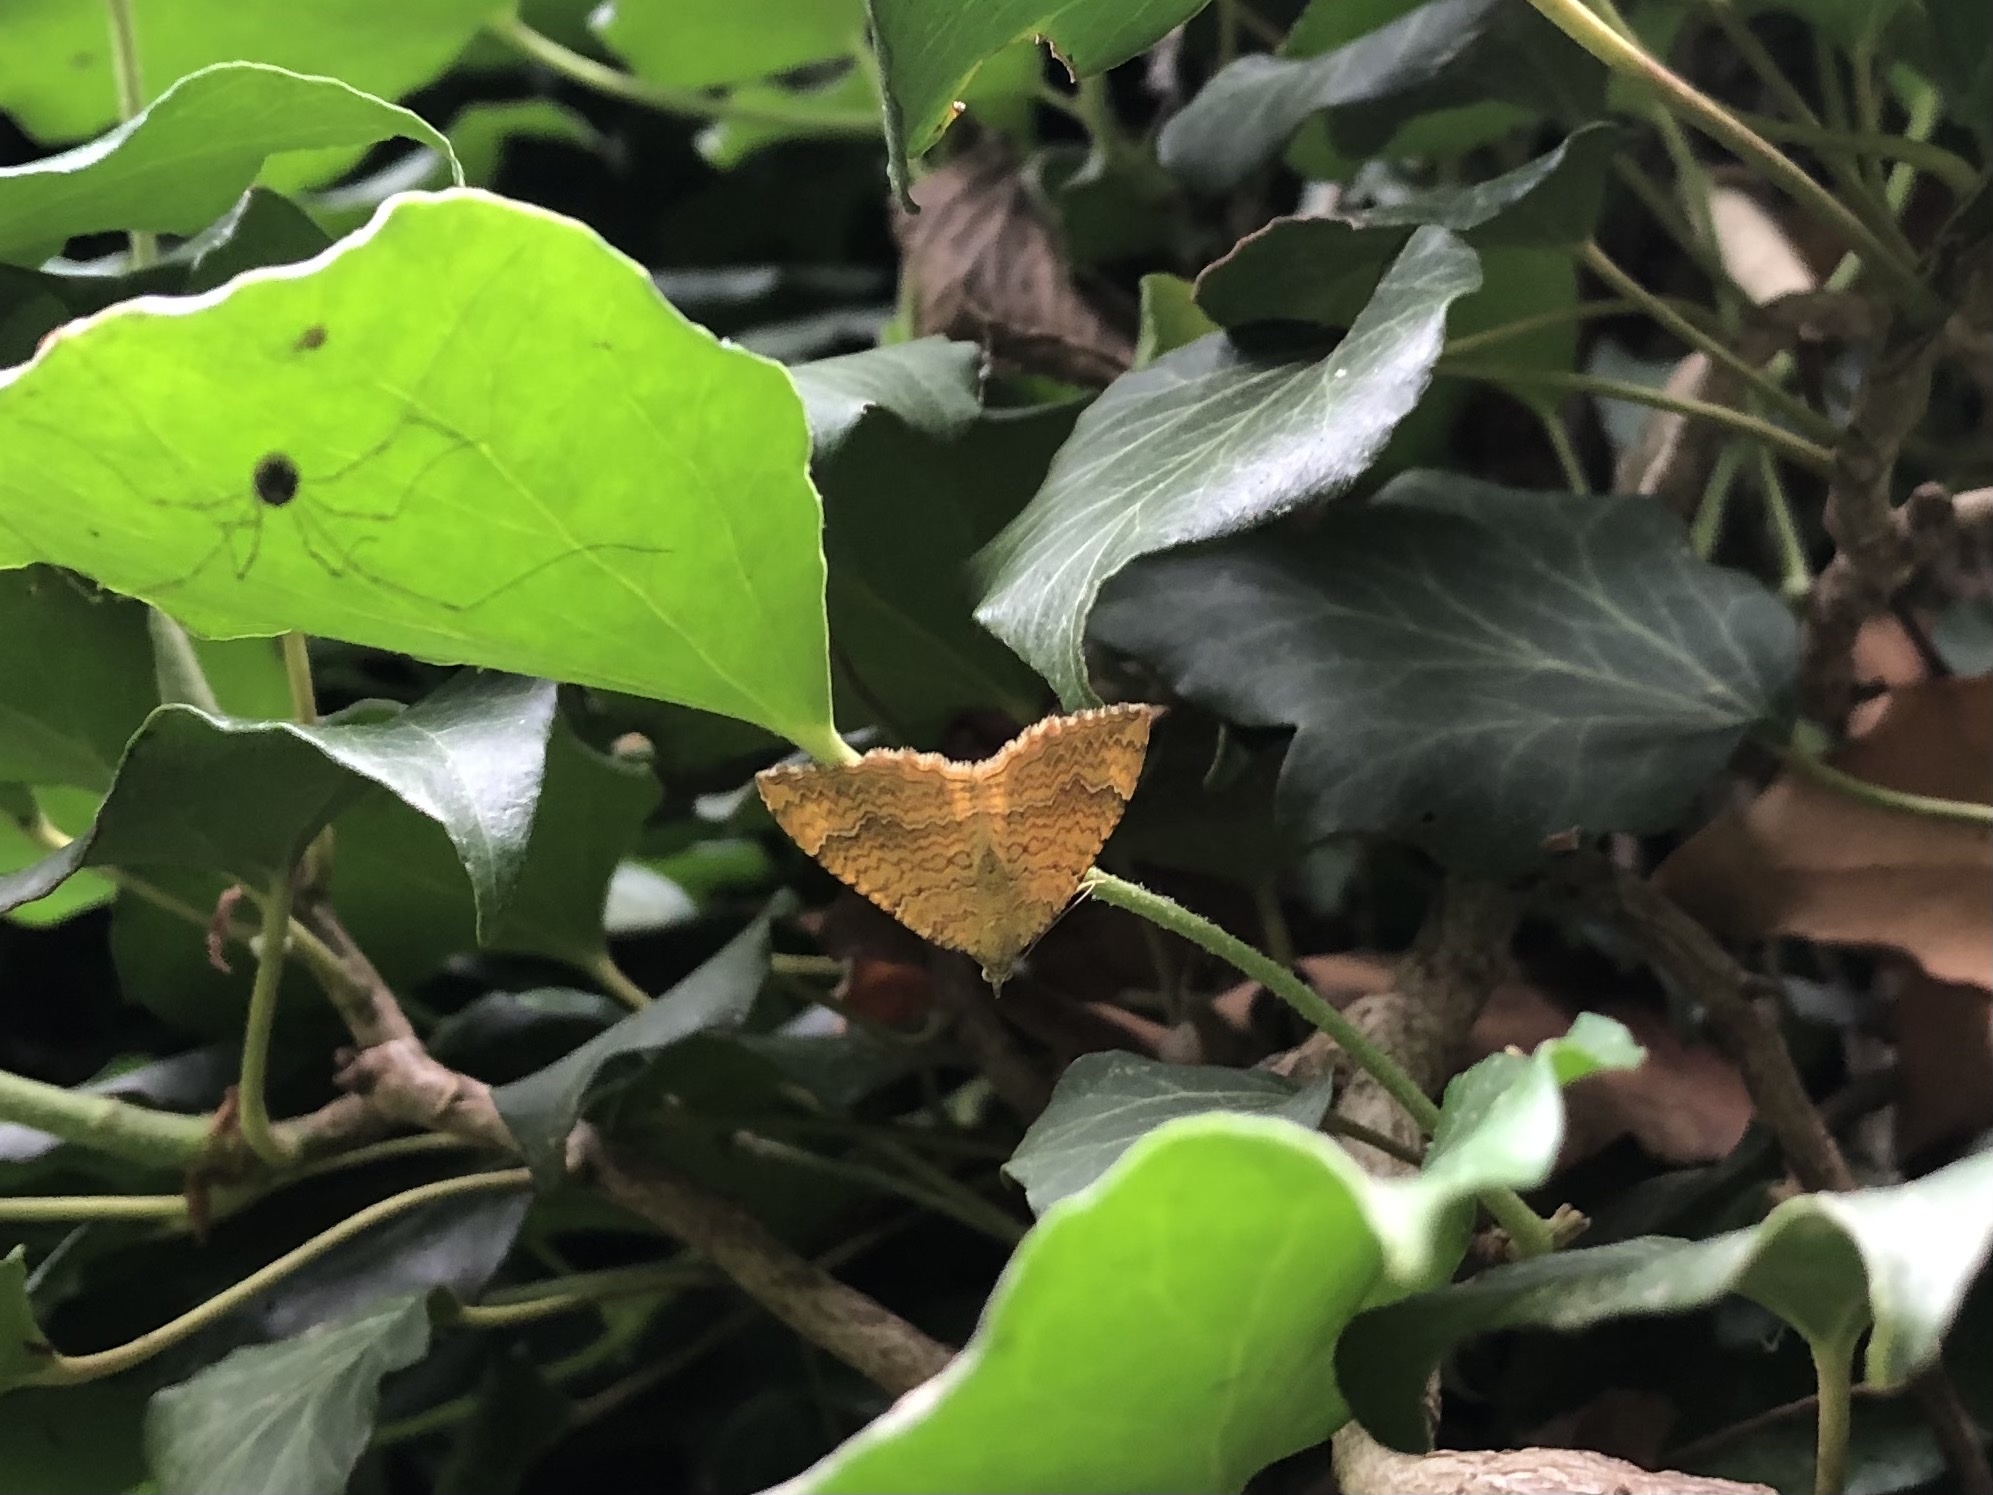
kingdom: Animalia
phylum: Arthropoda
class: Insecta
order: Lepidoptera
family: Geometridae
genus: Camptogramma
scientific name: Camptogramma bilineata
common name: Yellow shell
